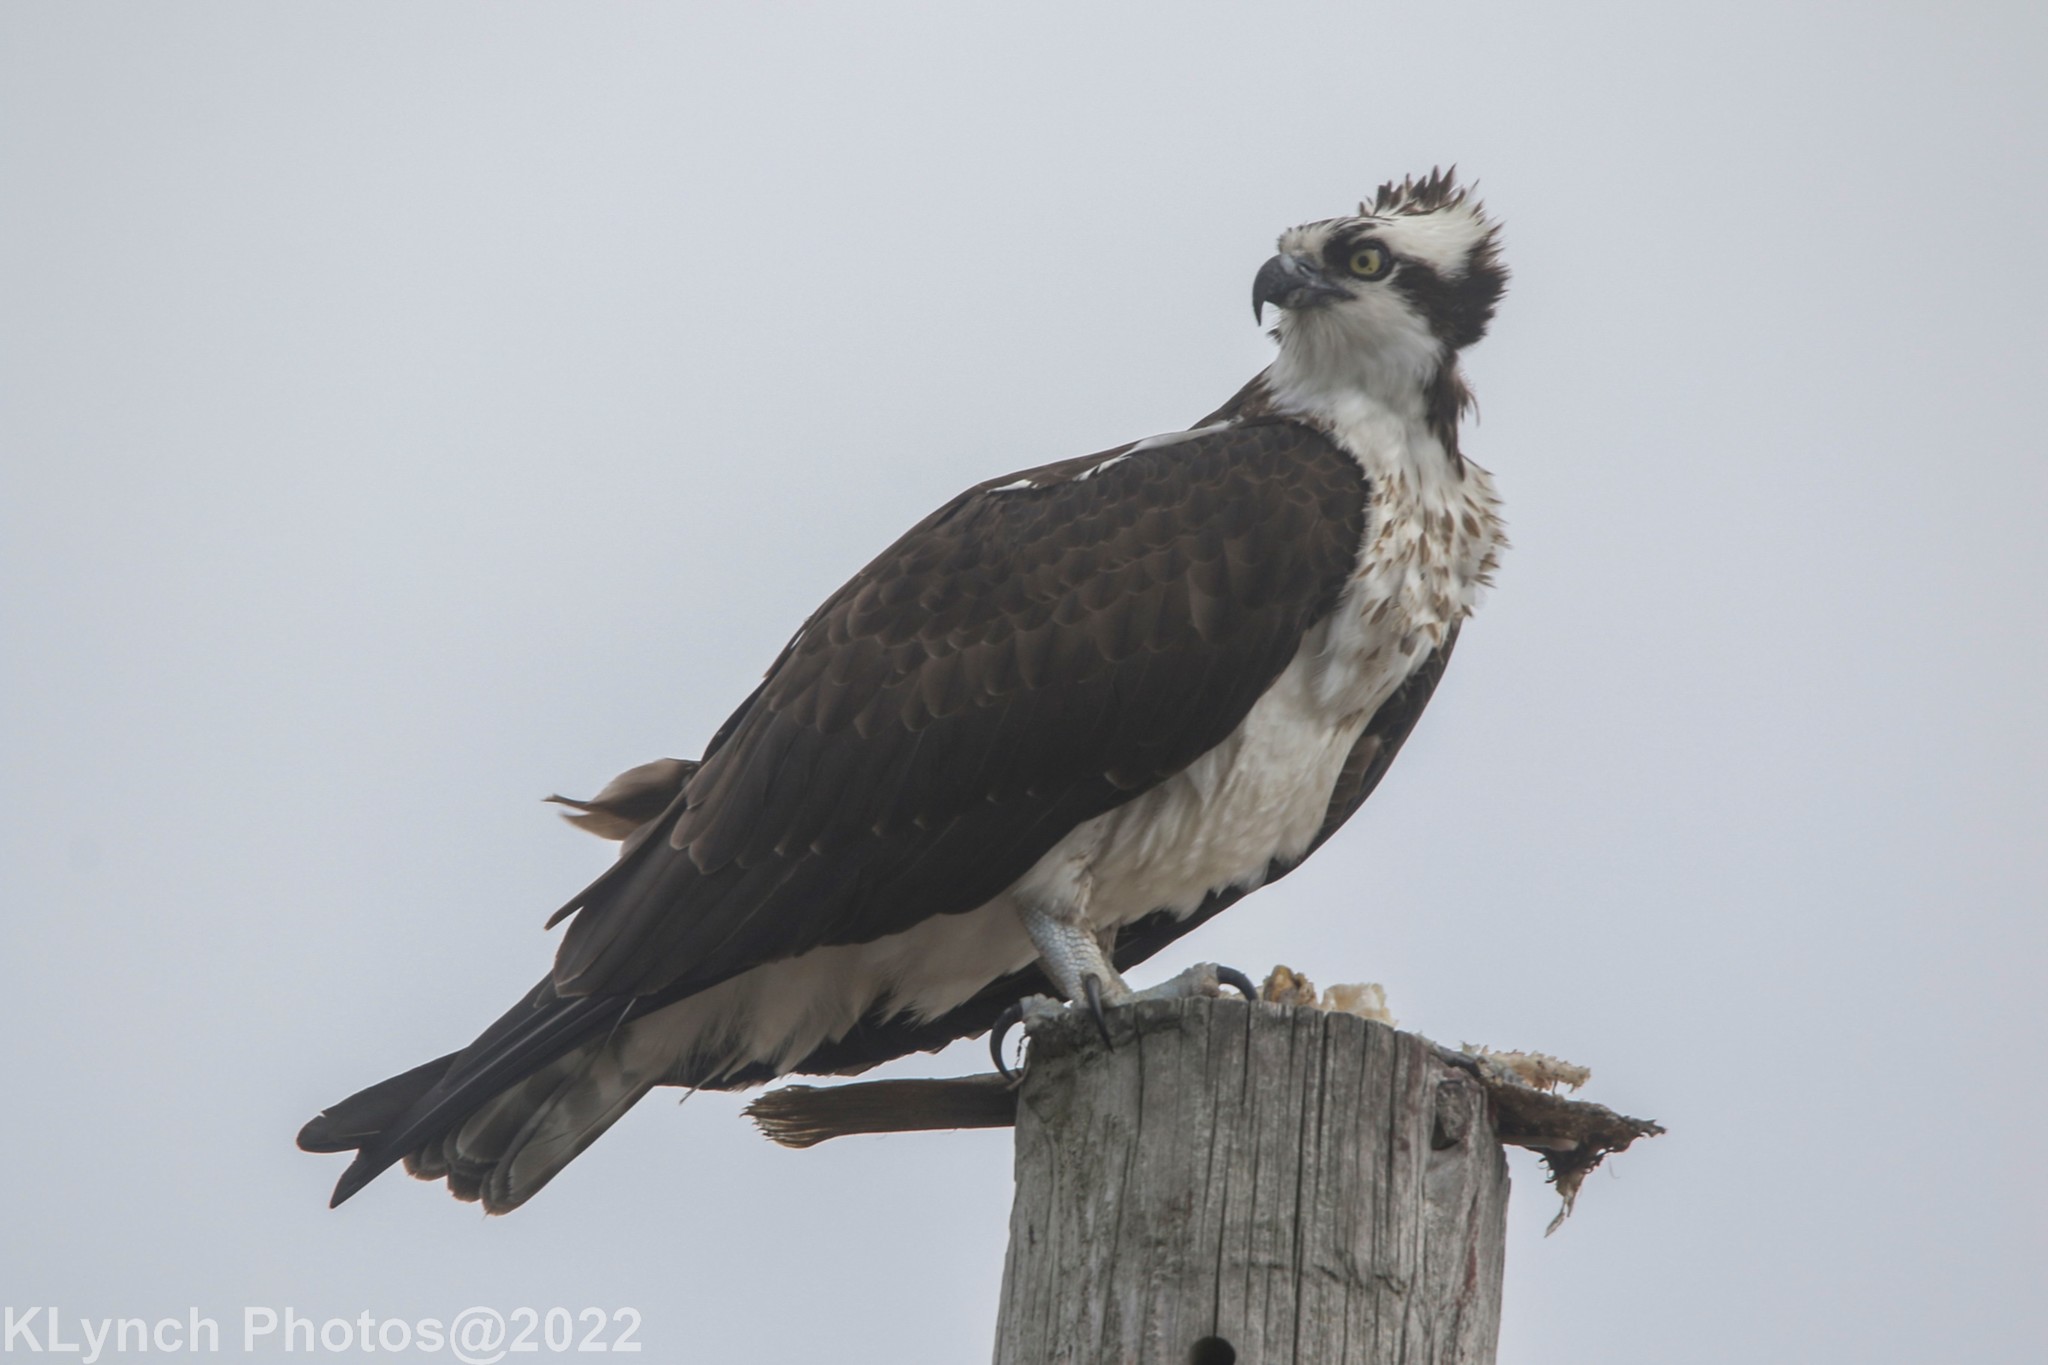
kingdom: Animalia
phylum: Chordata
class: Aves
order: Accipitriformes
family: Pandionidae
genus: Pandion
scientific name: Pandion haliaetus
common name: Osprey
